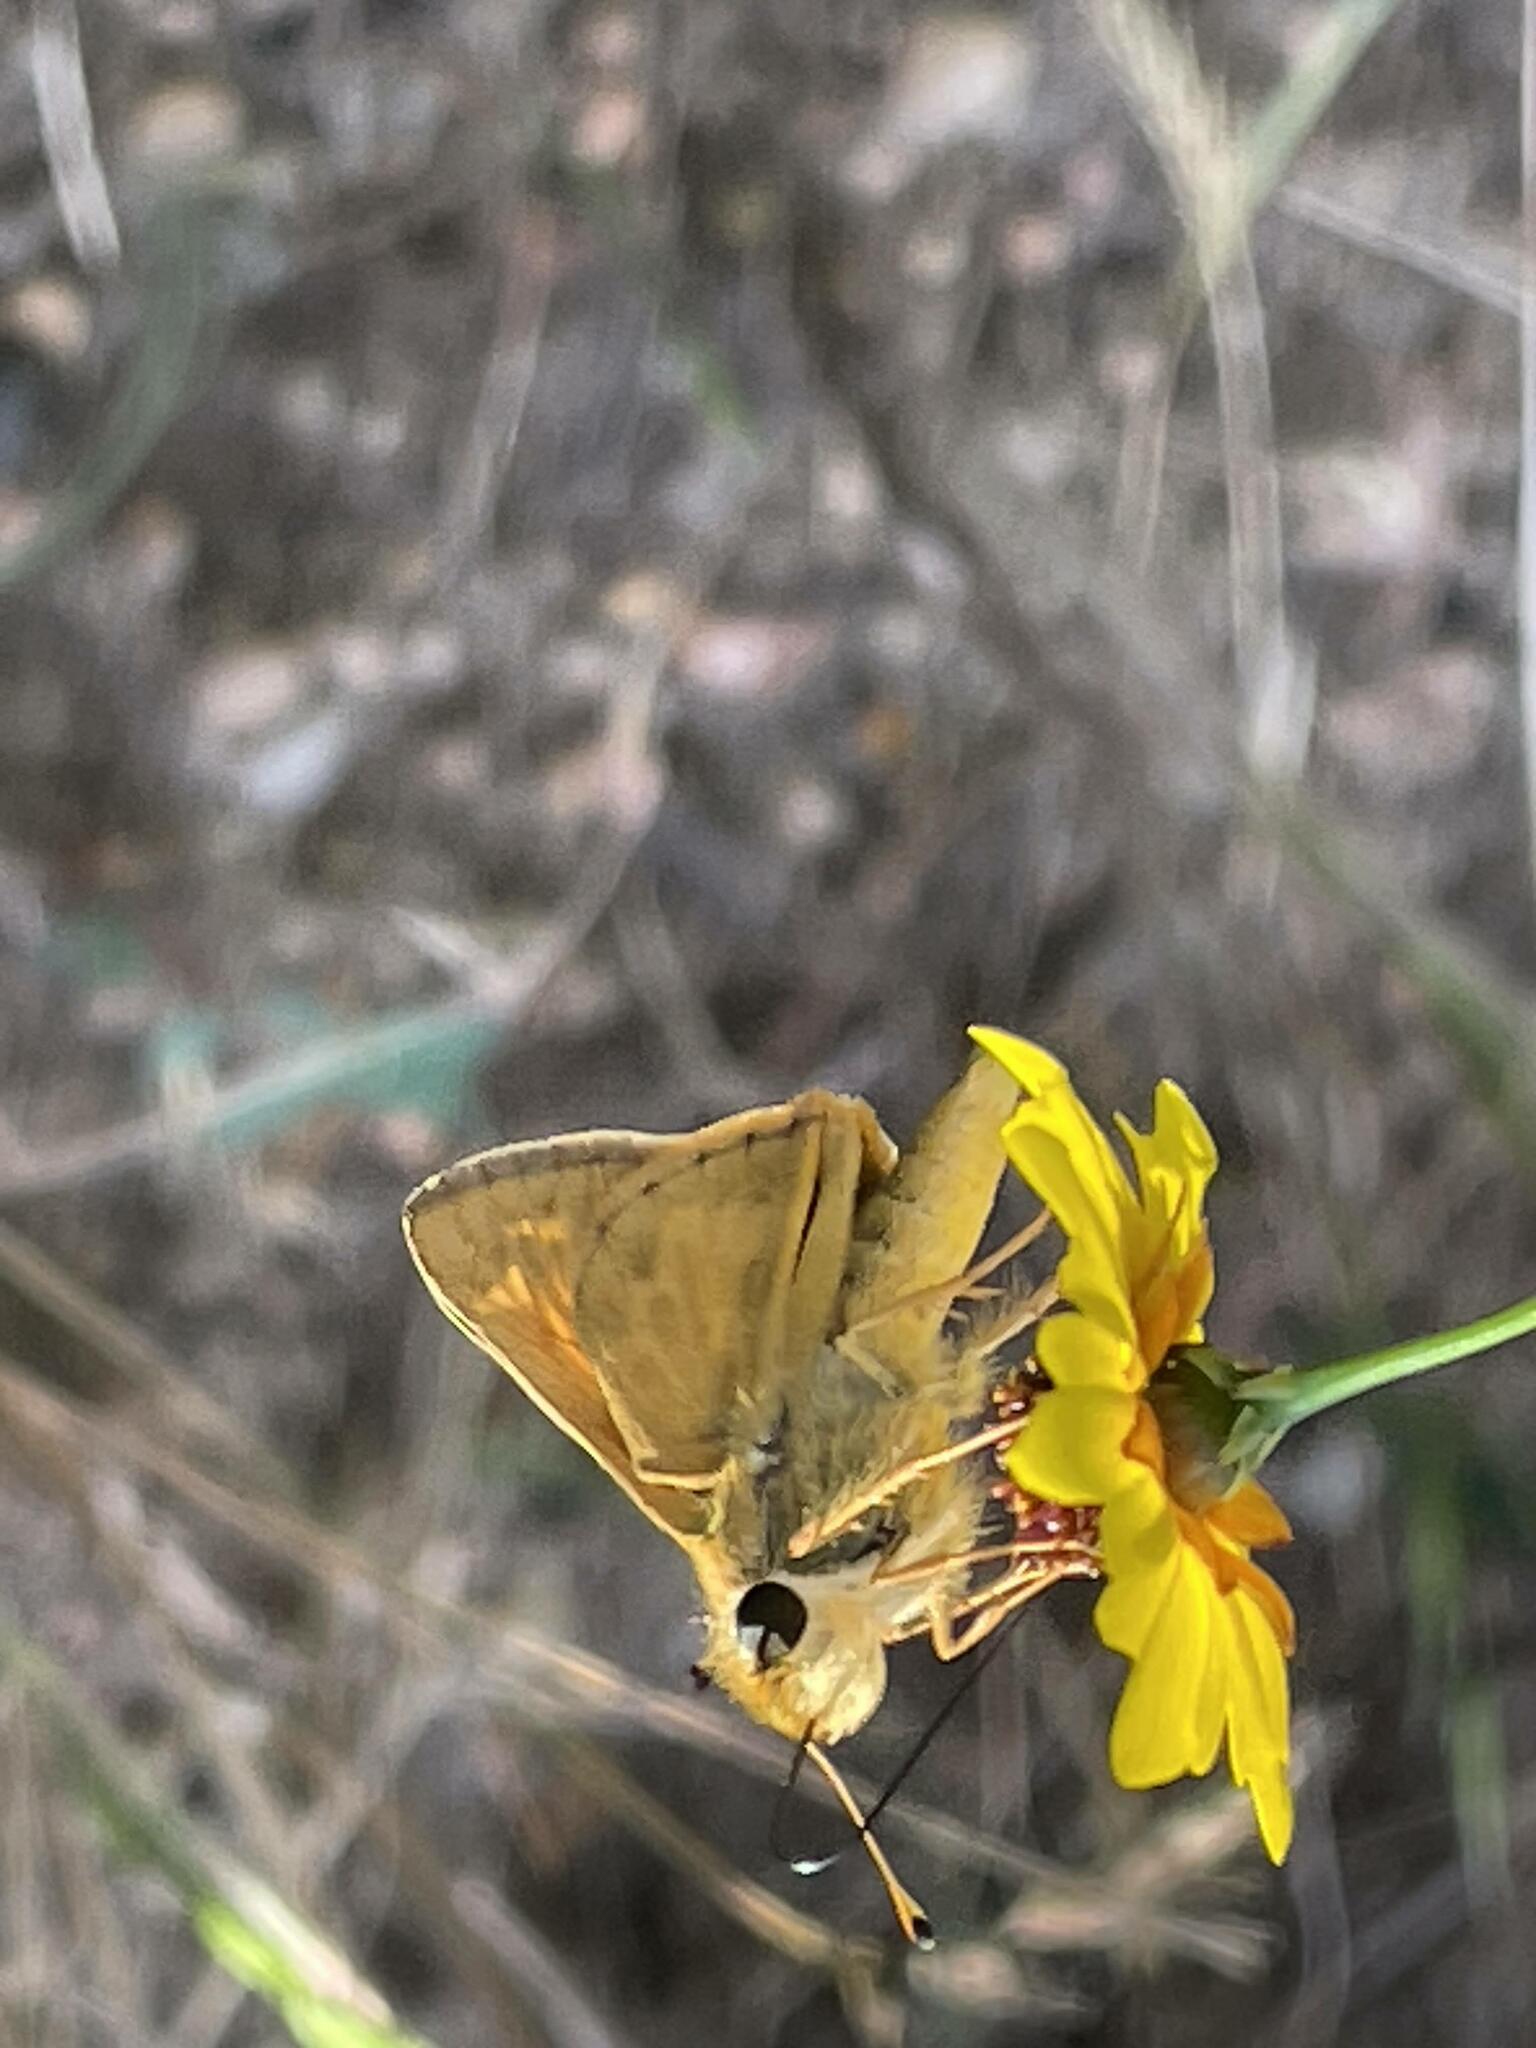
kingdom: Animalia
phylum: Arthropoda
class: Insecta
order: Lepidoptera
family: Hesperiidae
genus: Atalopedes
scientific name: Atalopedes
